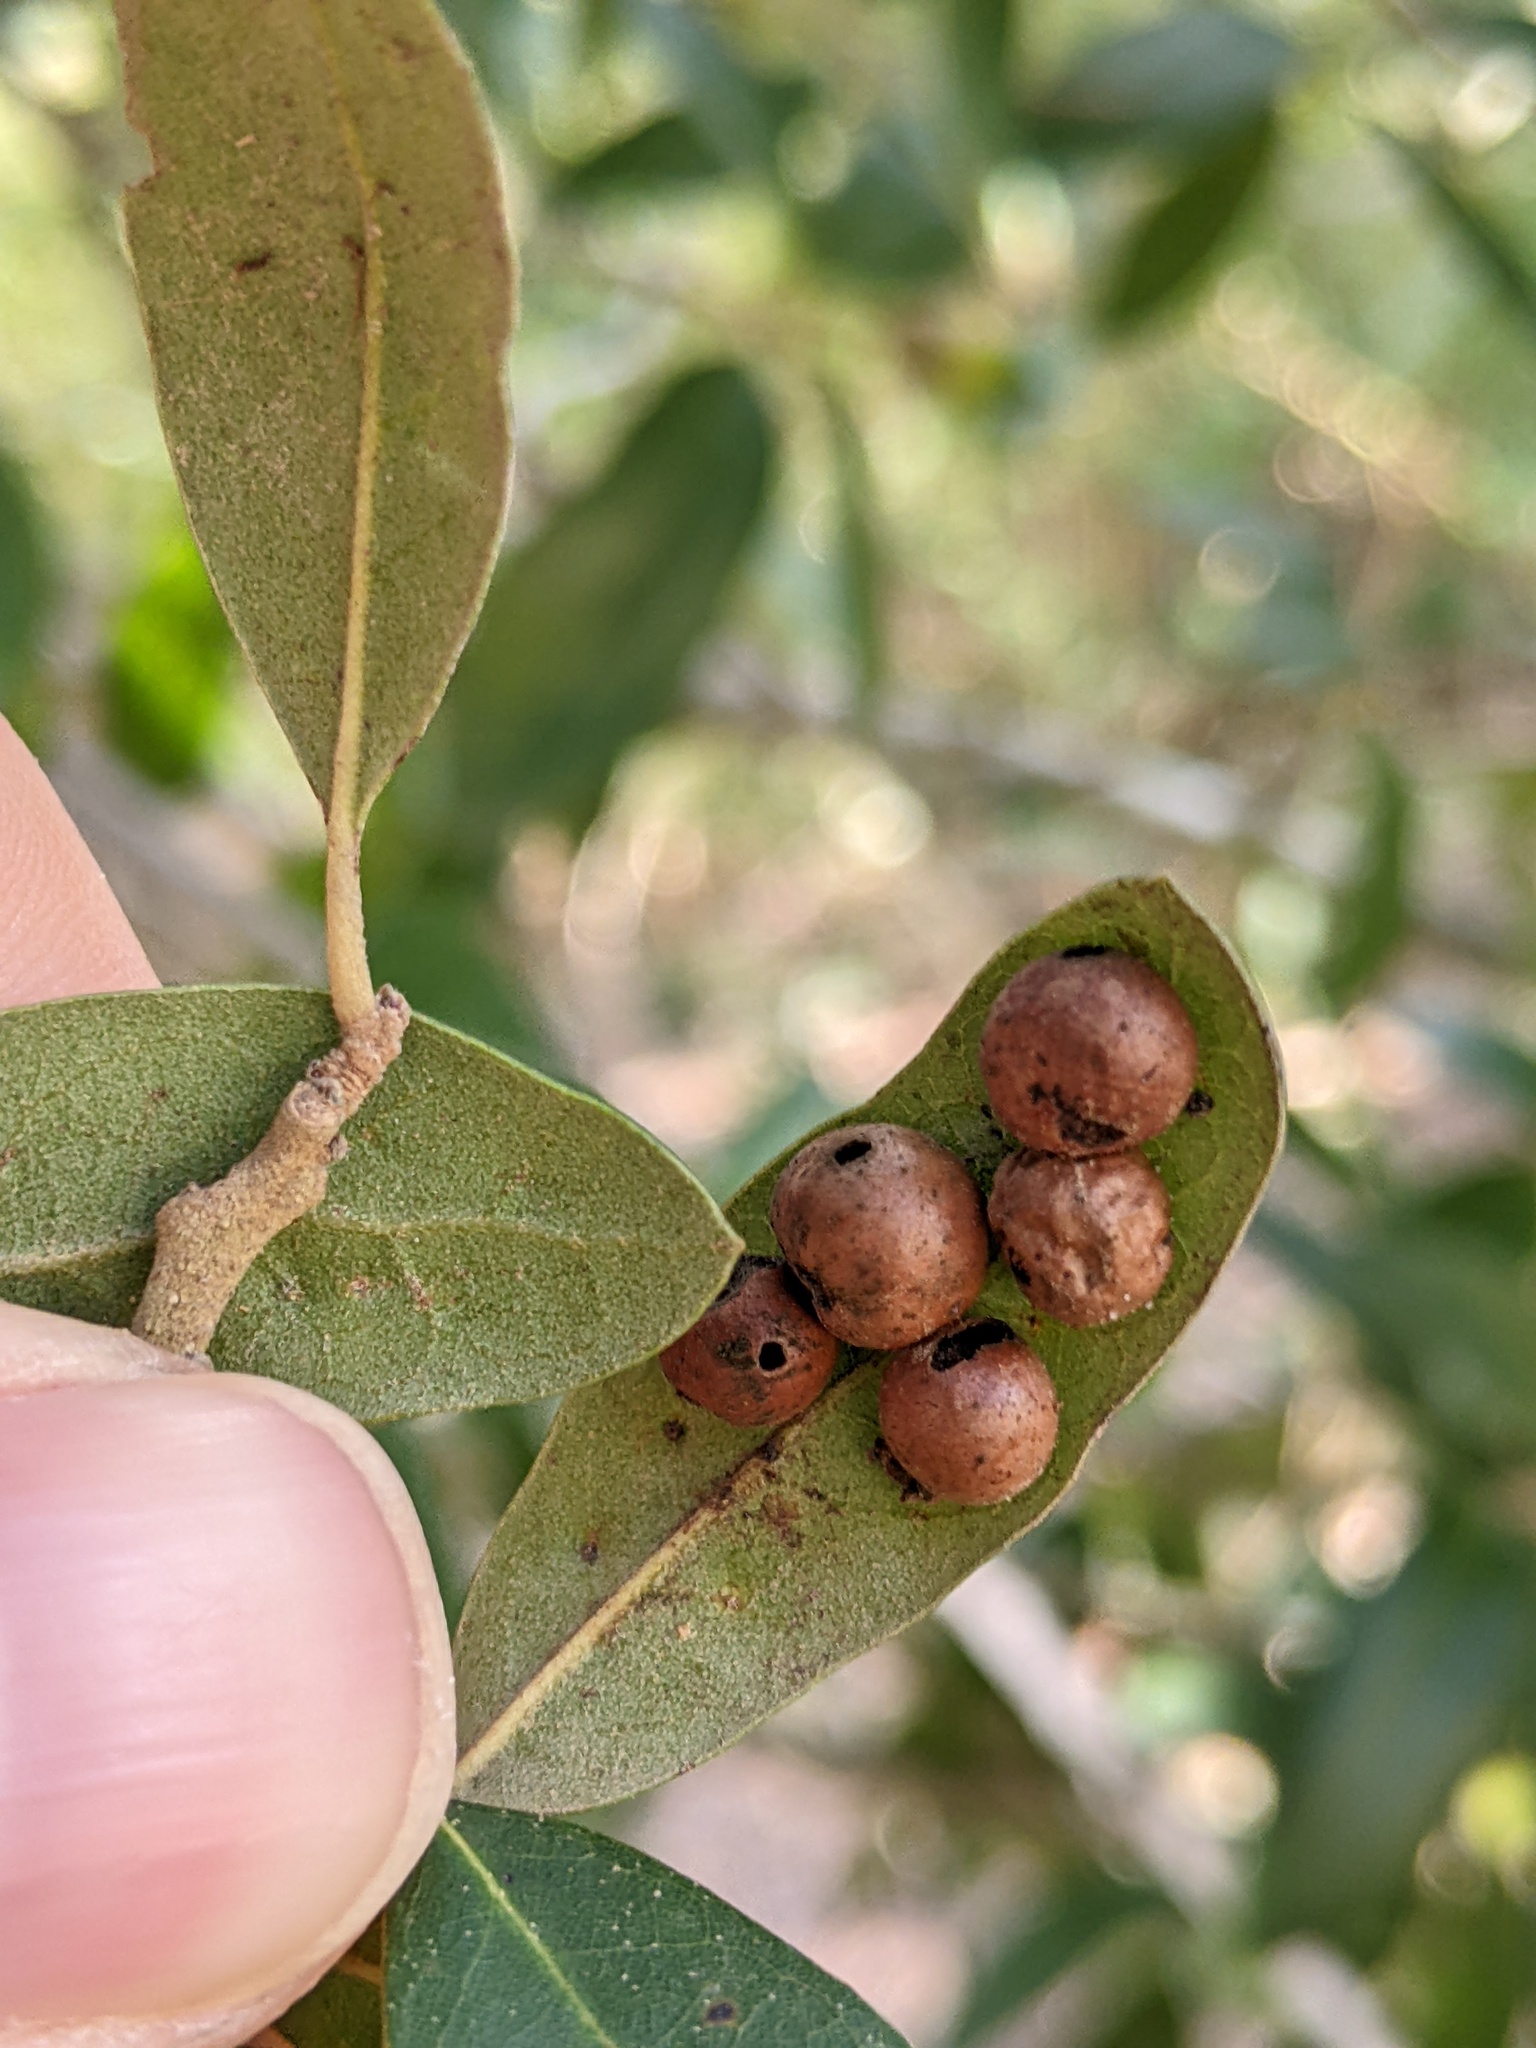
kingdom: Animalia
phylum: Arthropoda
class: Insecta
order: Hymenoptera
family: Cynipidae
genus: Belonocnema
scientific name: Belonocnema kinseyi
